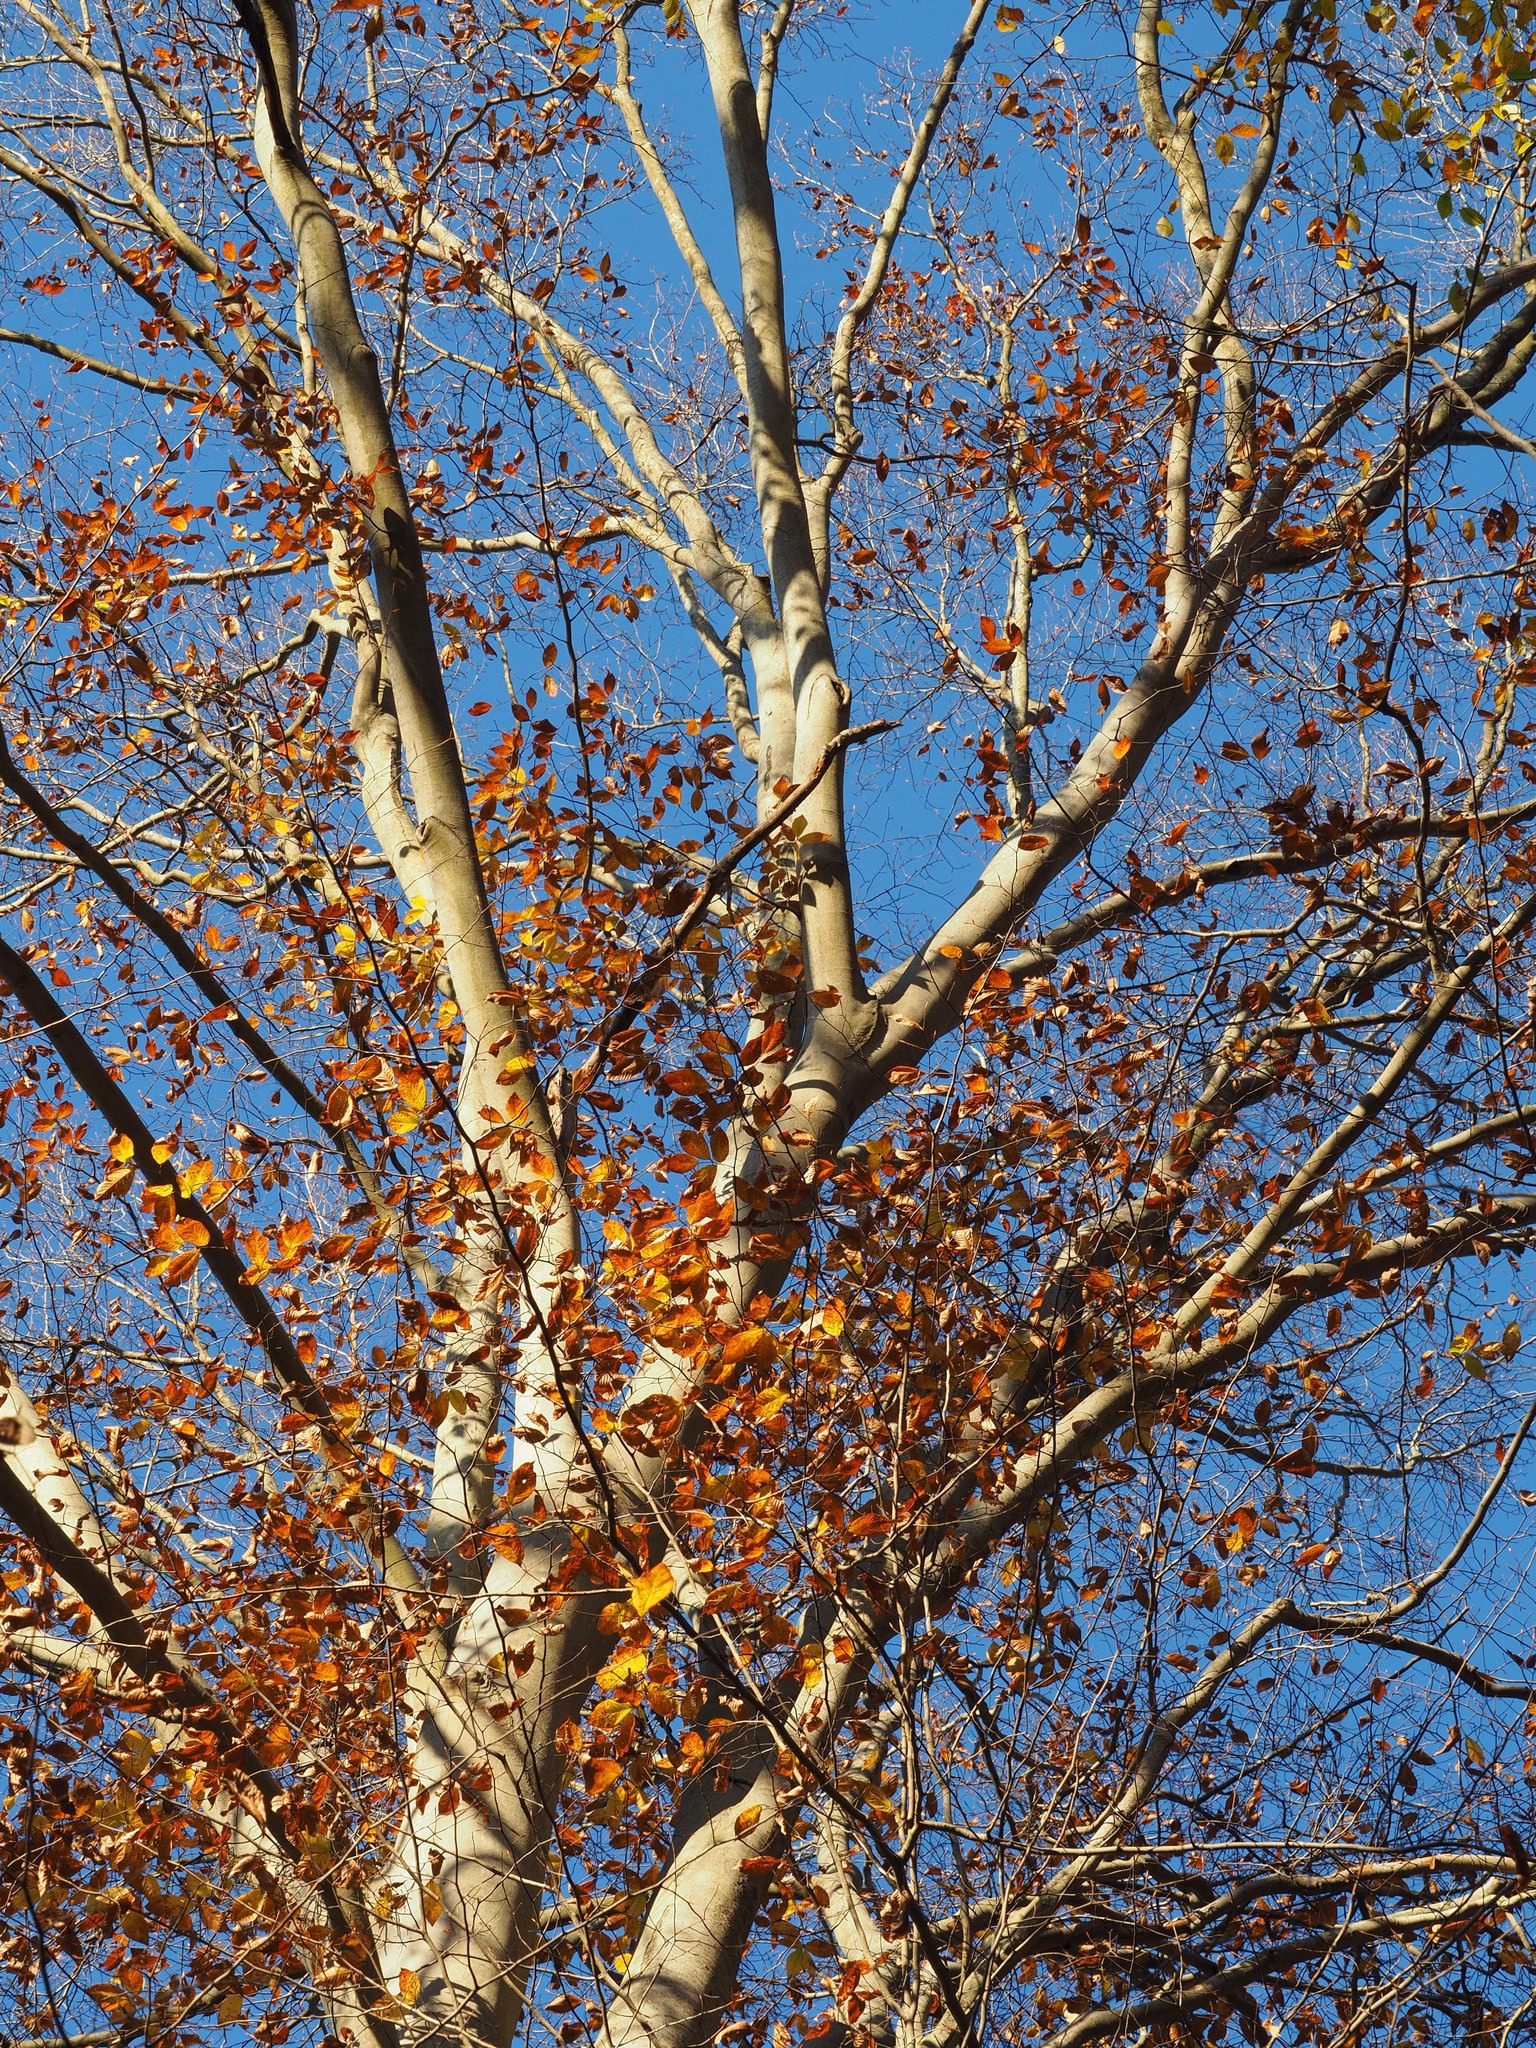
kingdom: Plantae
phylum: Tracheophyta
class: Magnoliopsida
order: Fagales
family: Fagaceae
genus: Fagus
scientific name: Fagus grandifolia
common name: American beech
